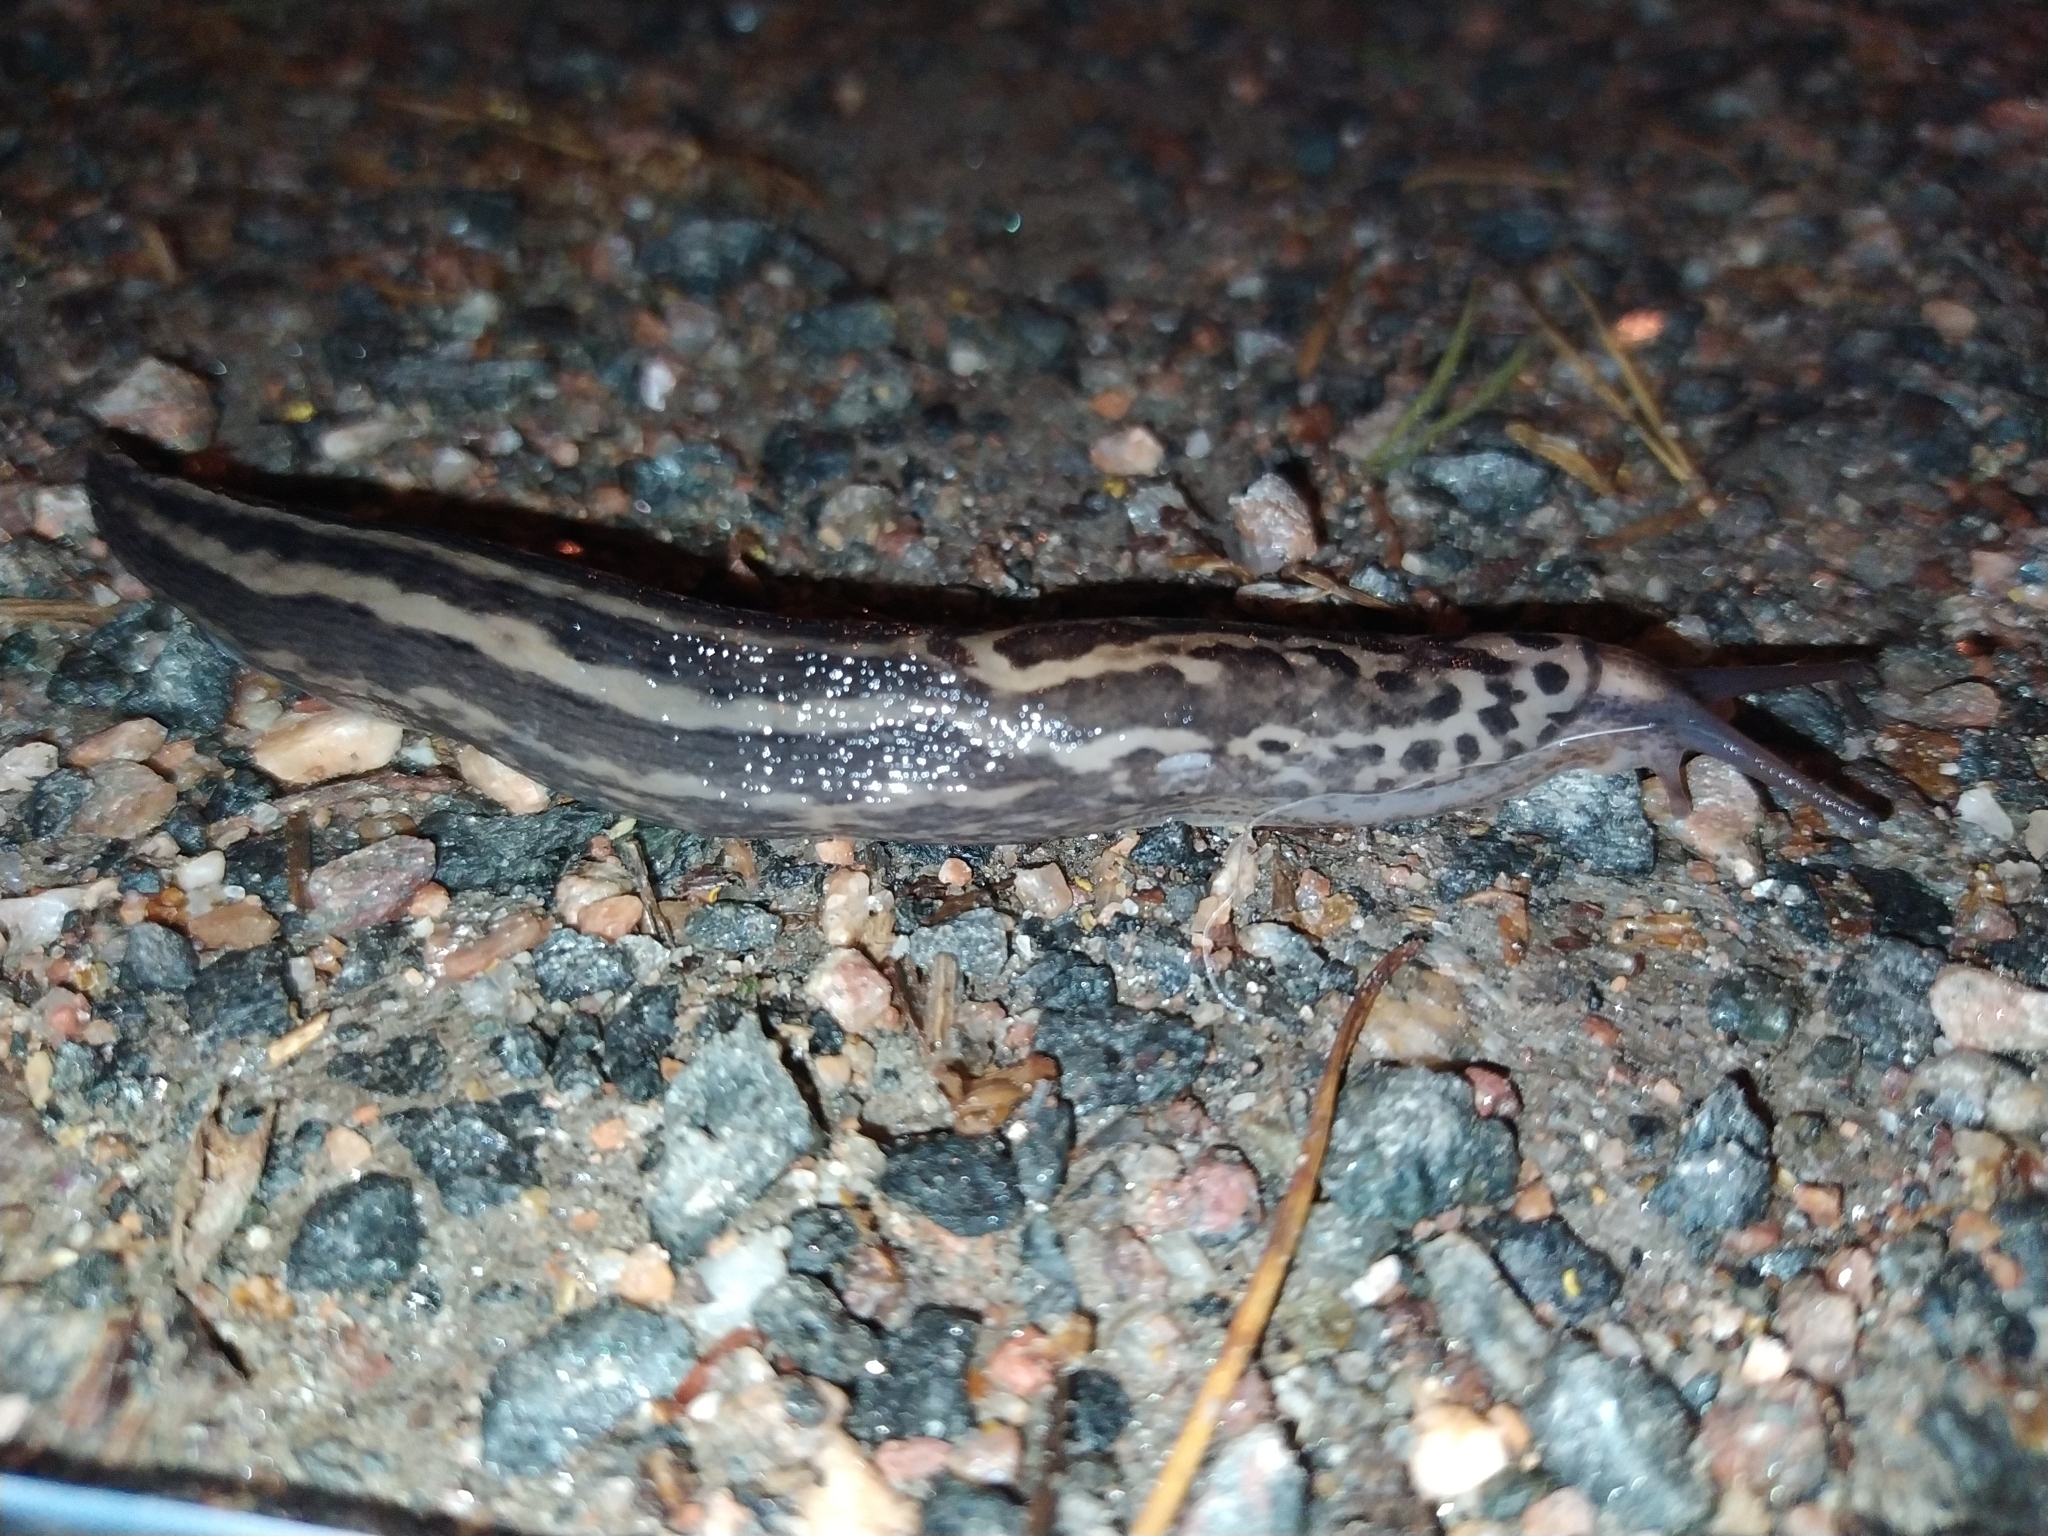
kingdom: Animalia
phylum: Mollusca
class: Gastropoda
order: Stylommatophora
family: Limacidae
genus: Limax
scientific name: Limax maximus
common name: Great grey slug
